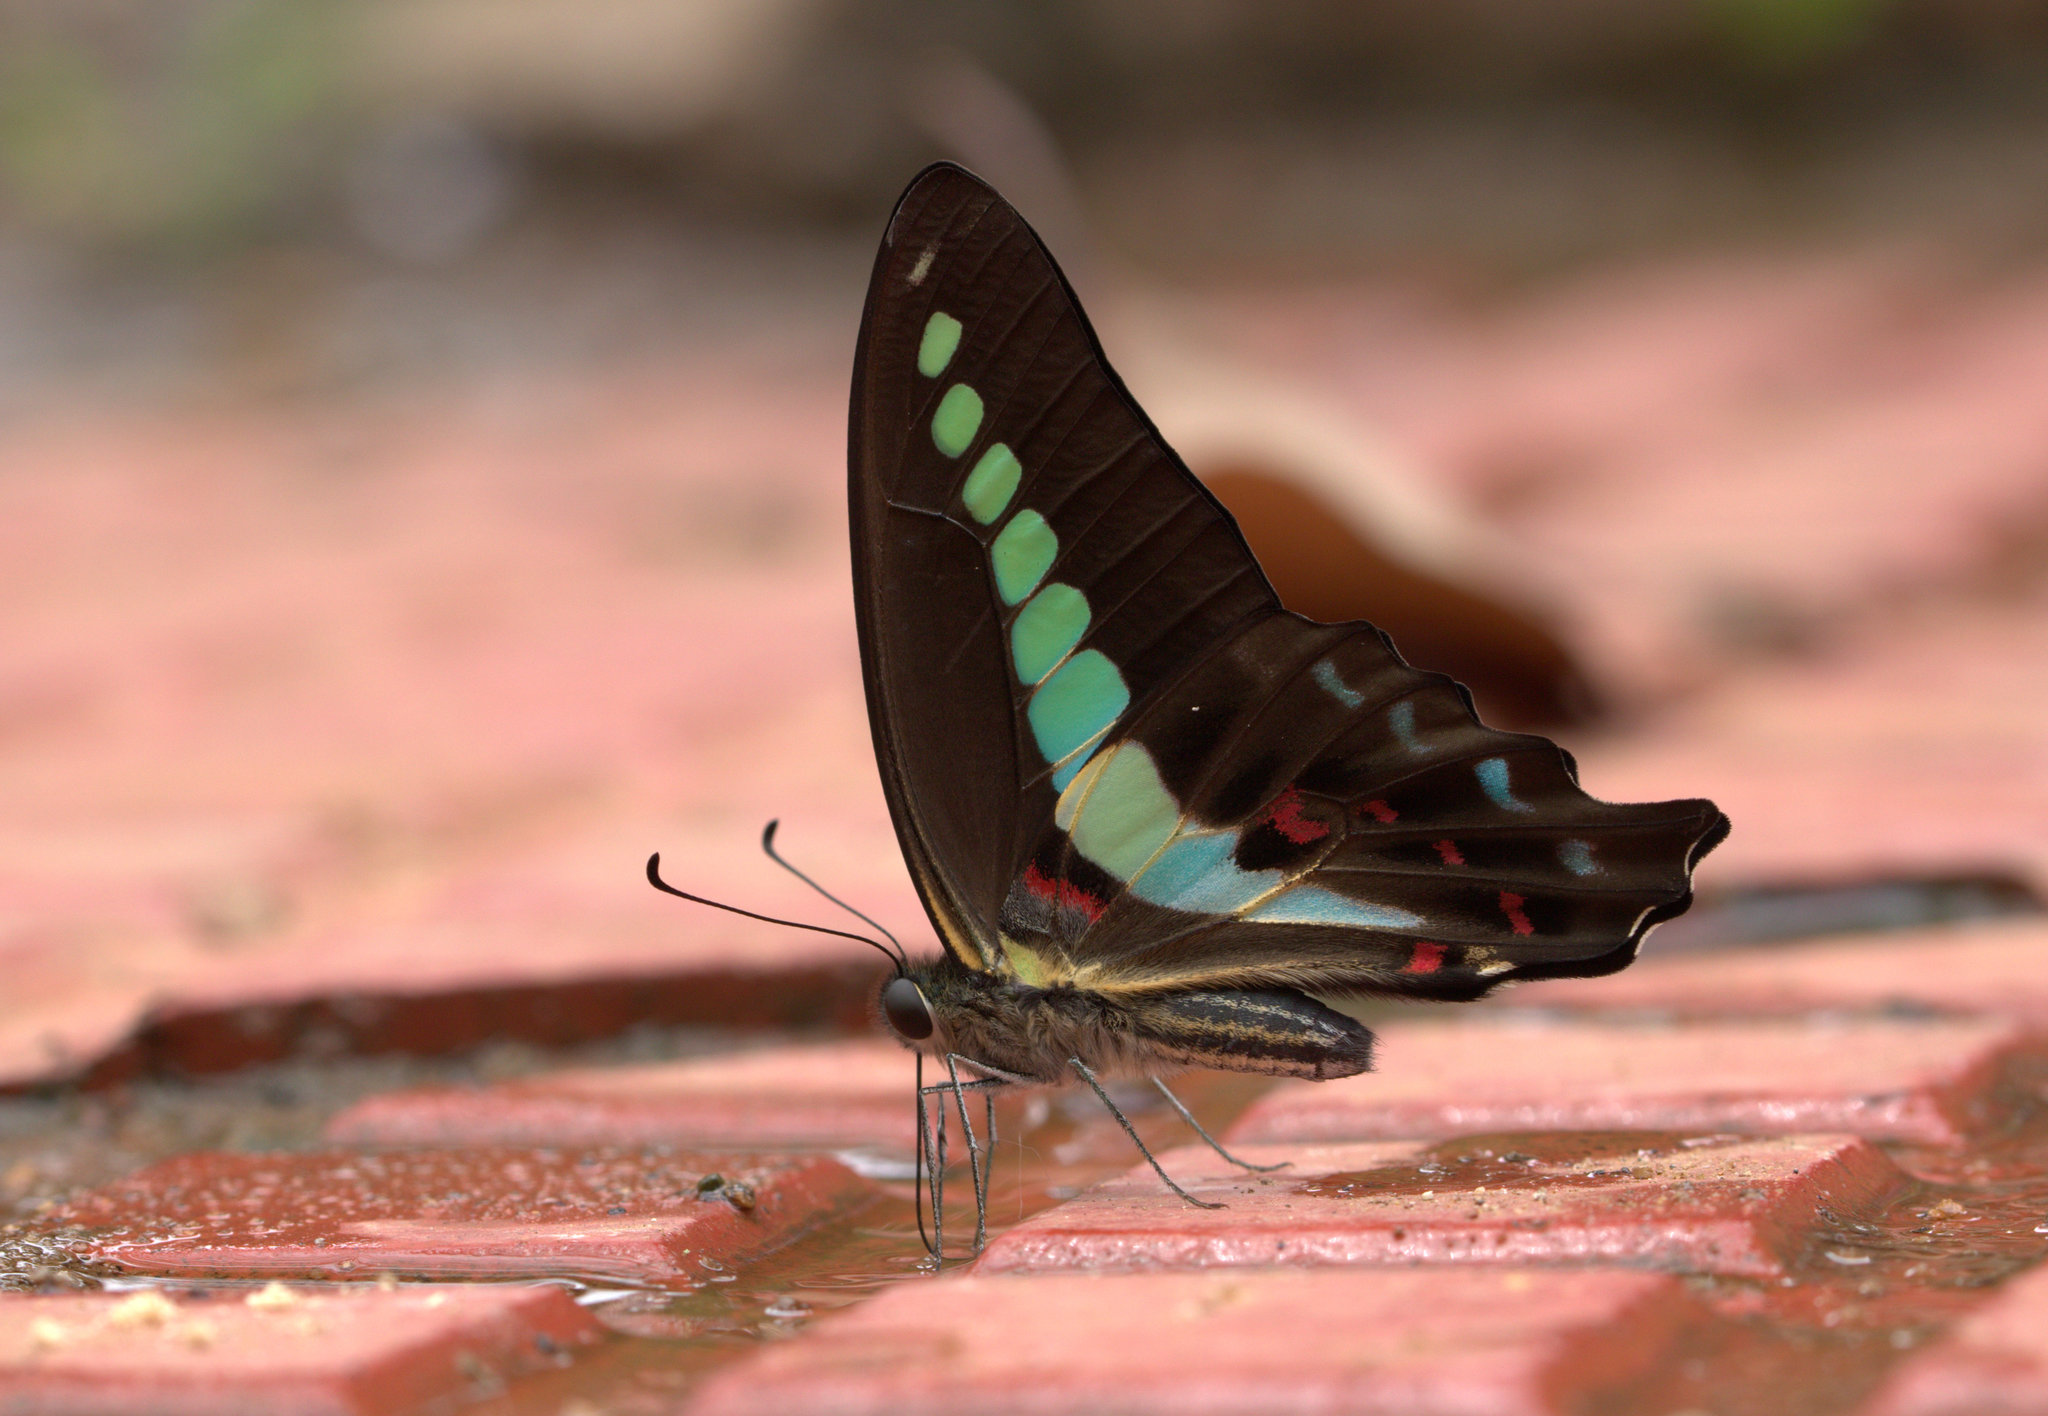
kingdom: Animalia
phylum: Arthropoda
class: Insecta
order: Lepidoptera
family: Papilionidae
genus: Graphium
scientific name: Graphium
